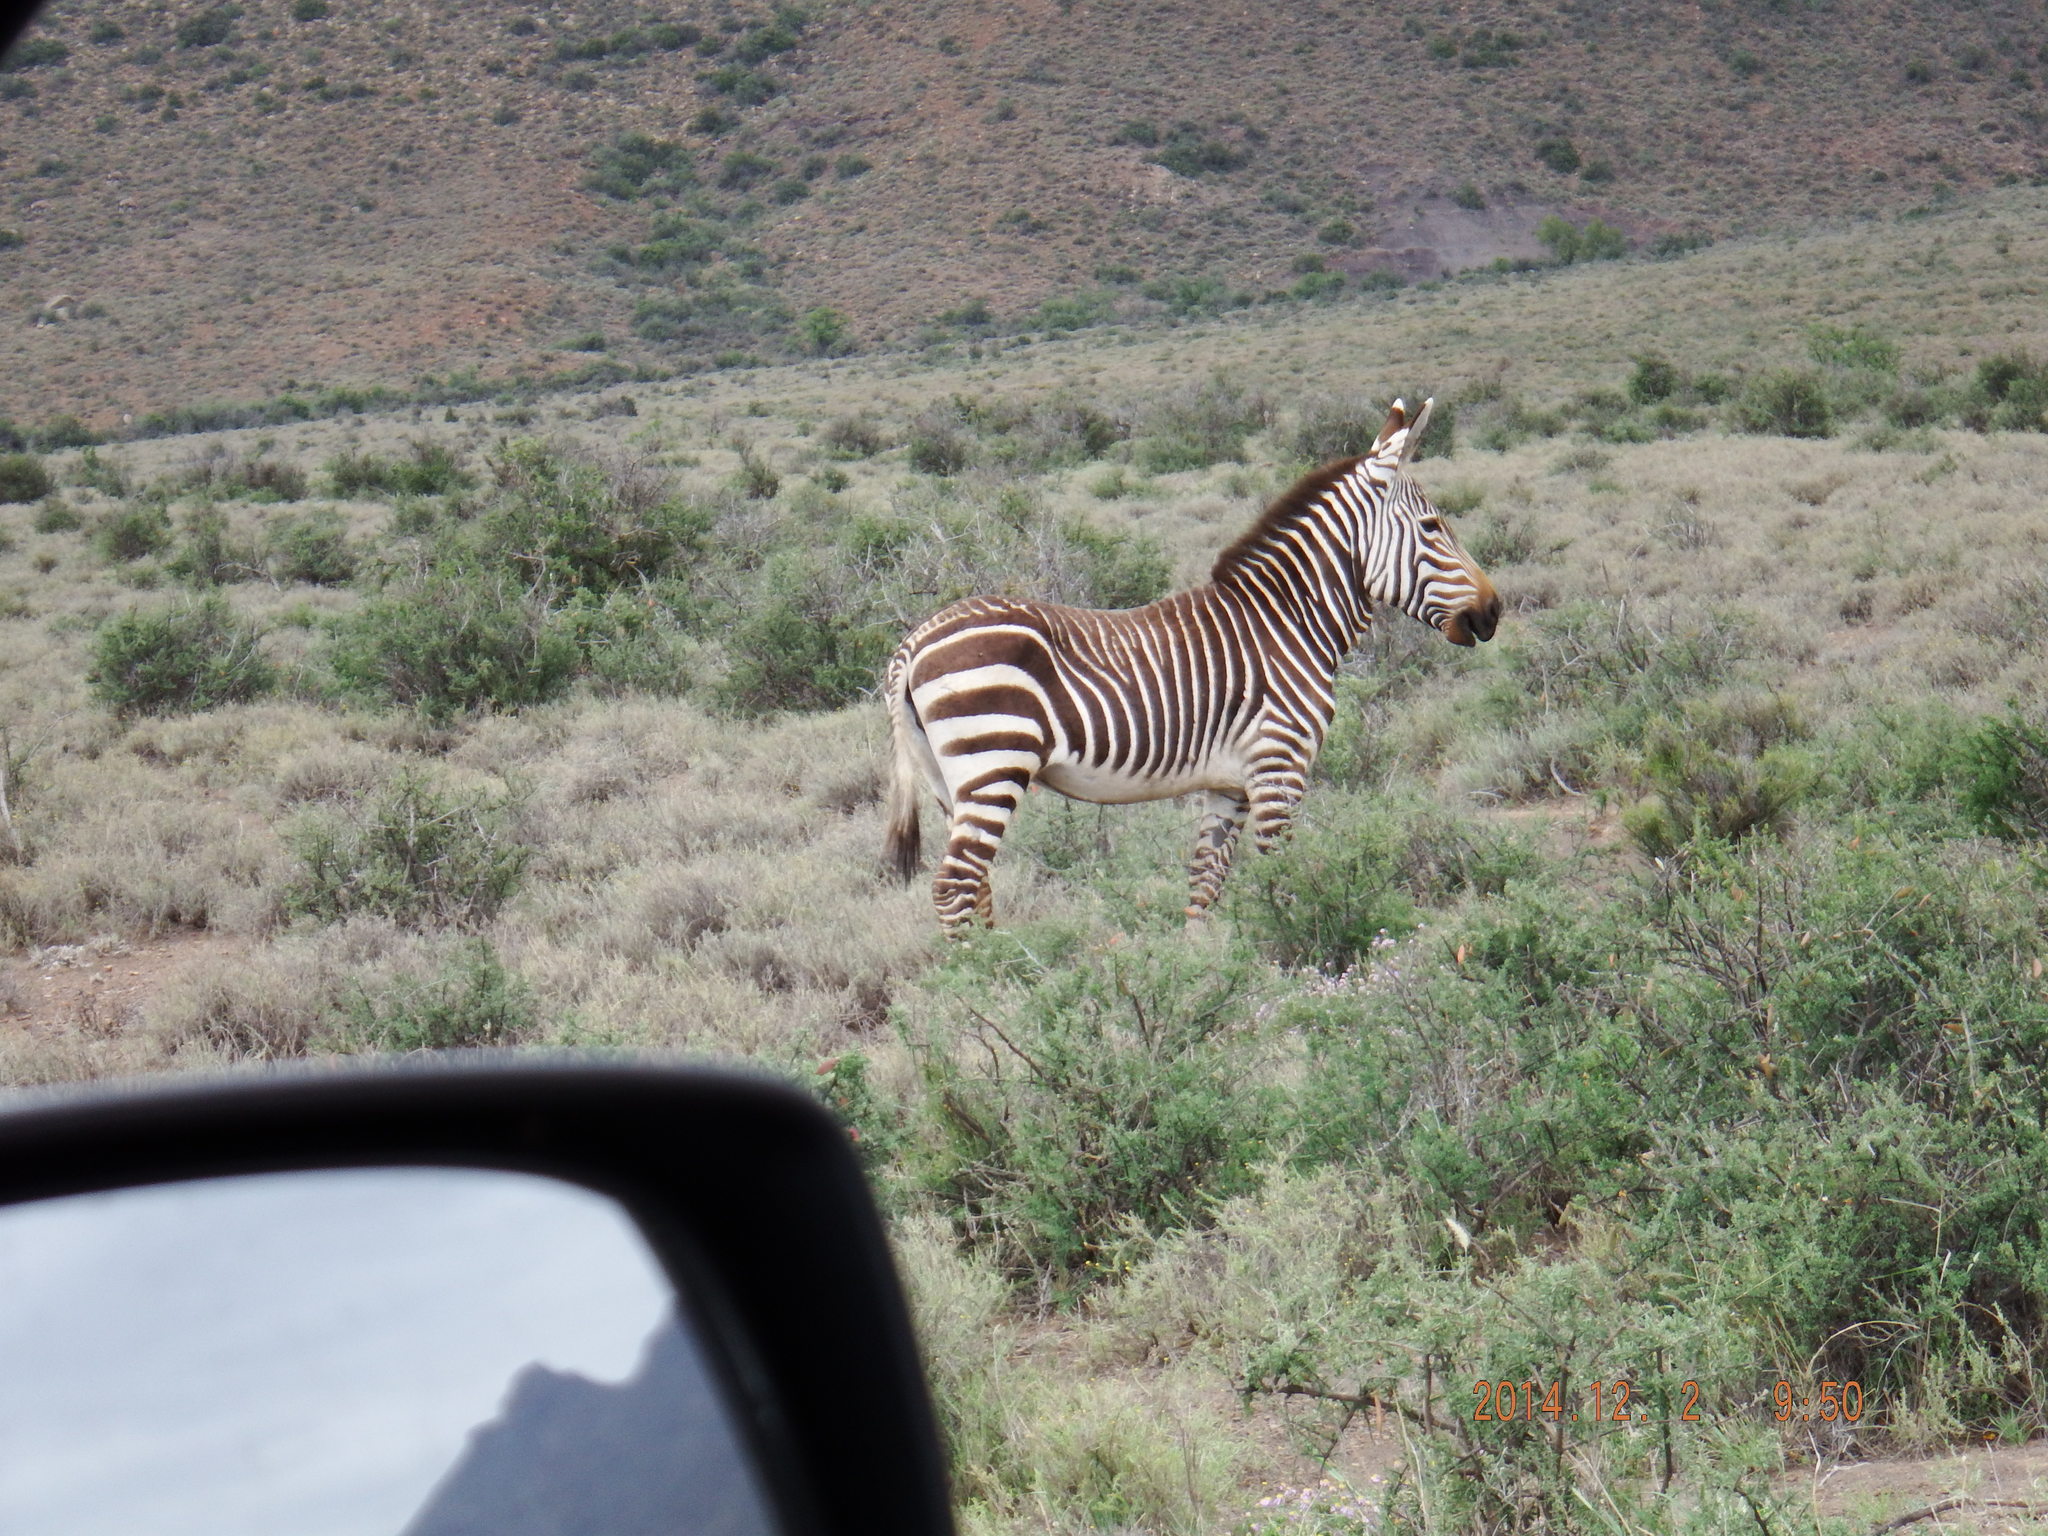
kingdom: Animalia
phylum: Chordata
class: Mammalia
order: Perissodactyla
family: Equidae
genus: Equus
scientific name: Equus zebra
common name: Mountain zebra
